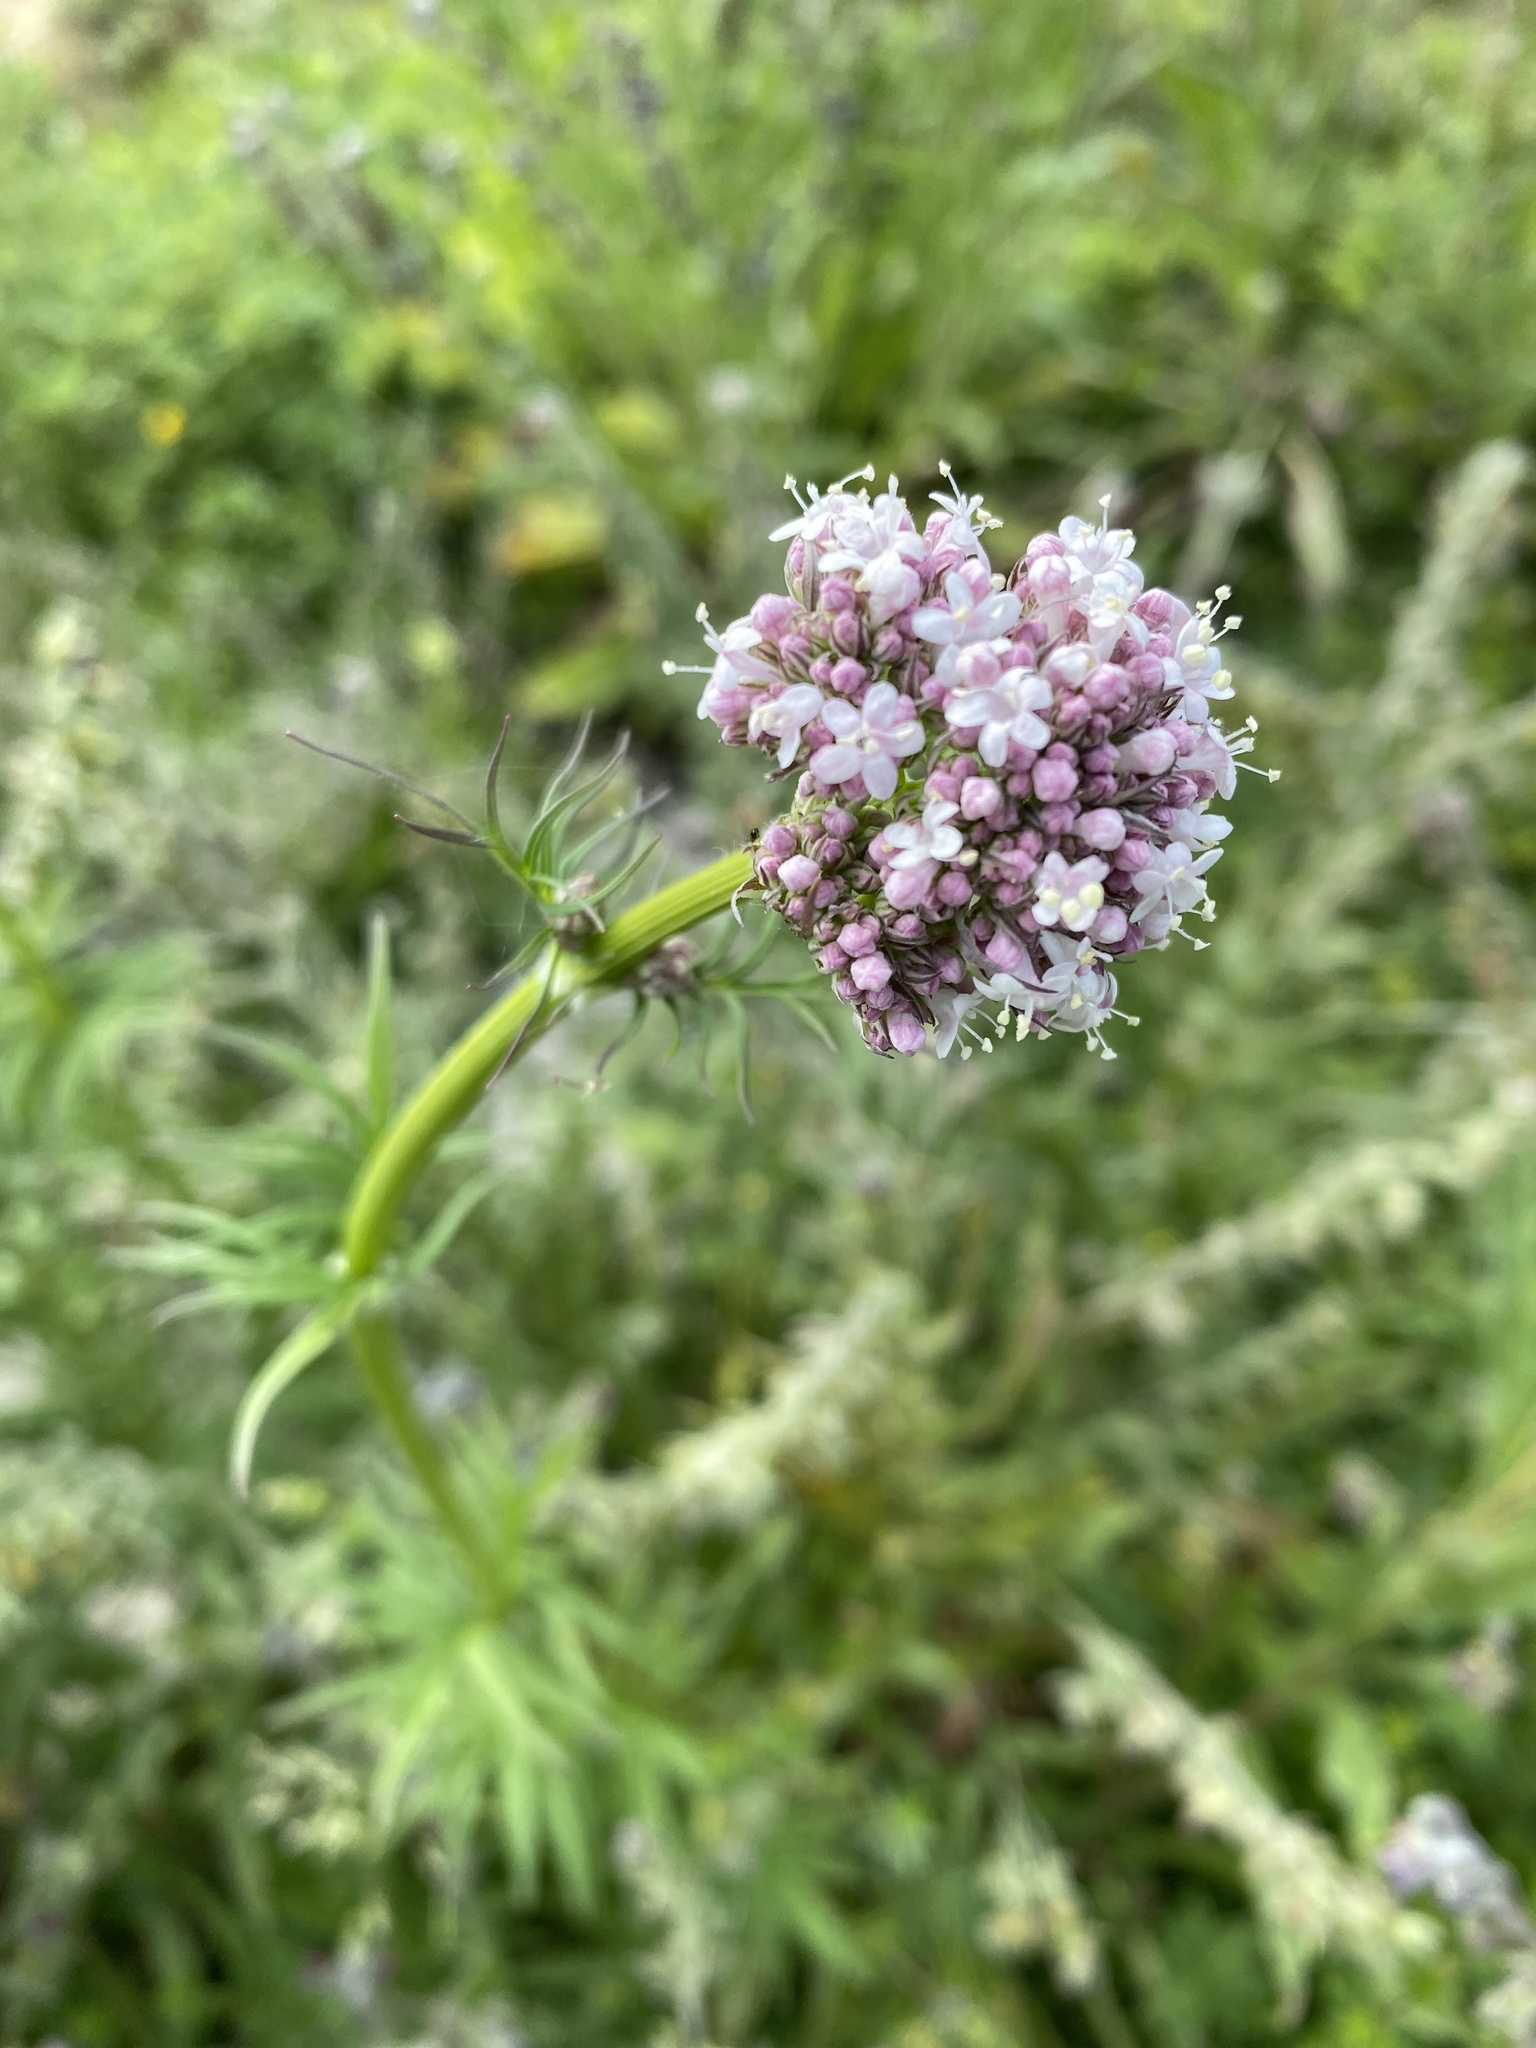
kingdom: Plantae
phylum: Tracheophyta
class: Magnoliopsida
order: Dipsacales
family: Caprifoliaceae
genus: Valeriana
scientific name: Valeriana officinalis
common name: Common valerian
